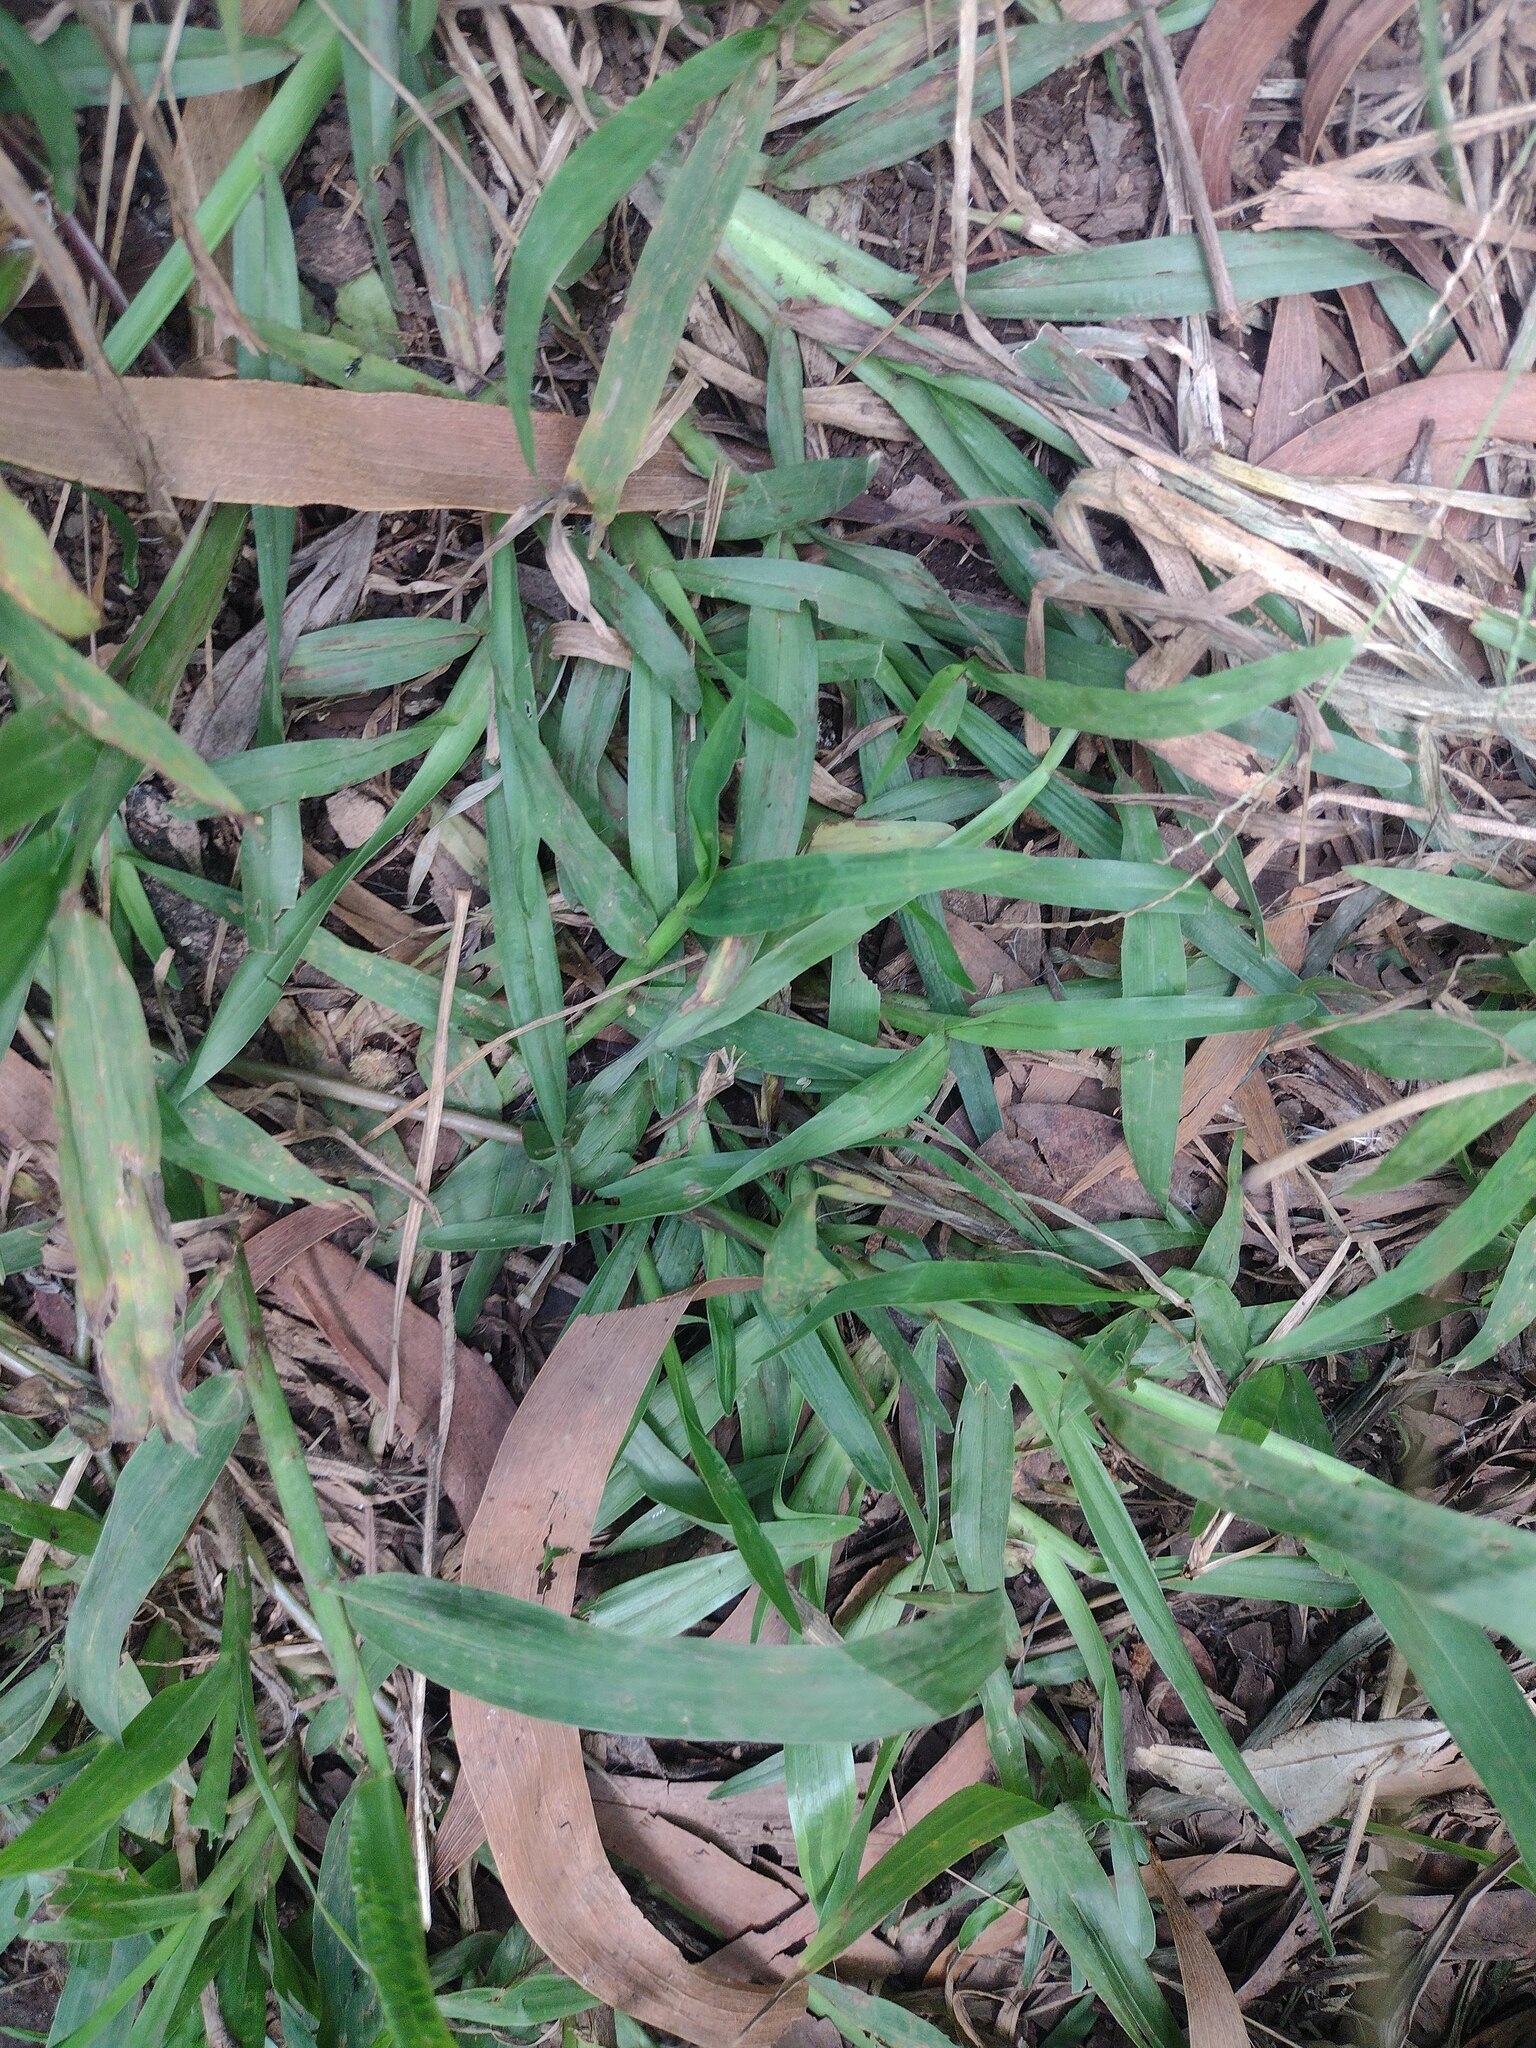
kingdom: Plantae
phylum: Tracheophyta
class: Liliopsida
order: Poales
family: Poaceae
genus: Axonopus
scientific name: Axonopus compressus
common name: American carpet grass
